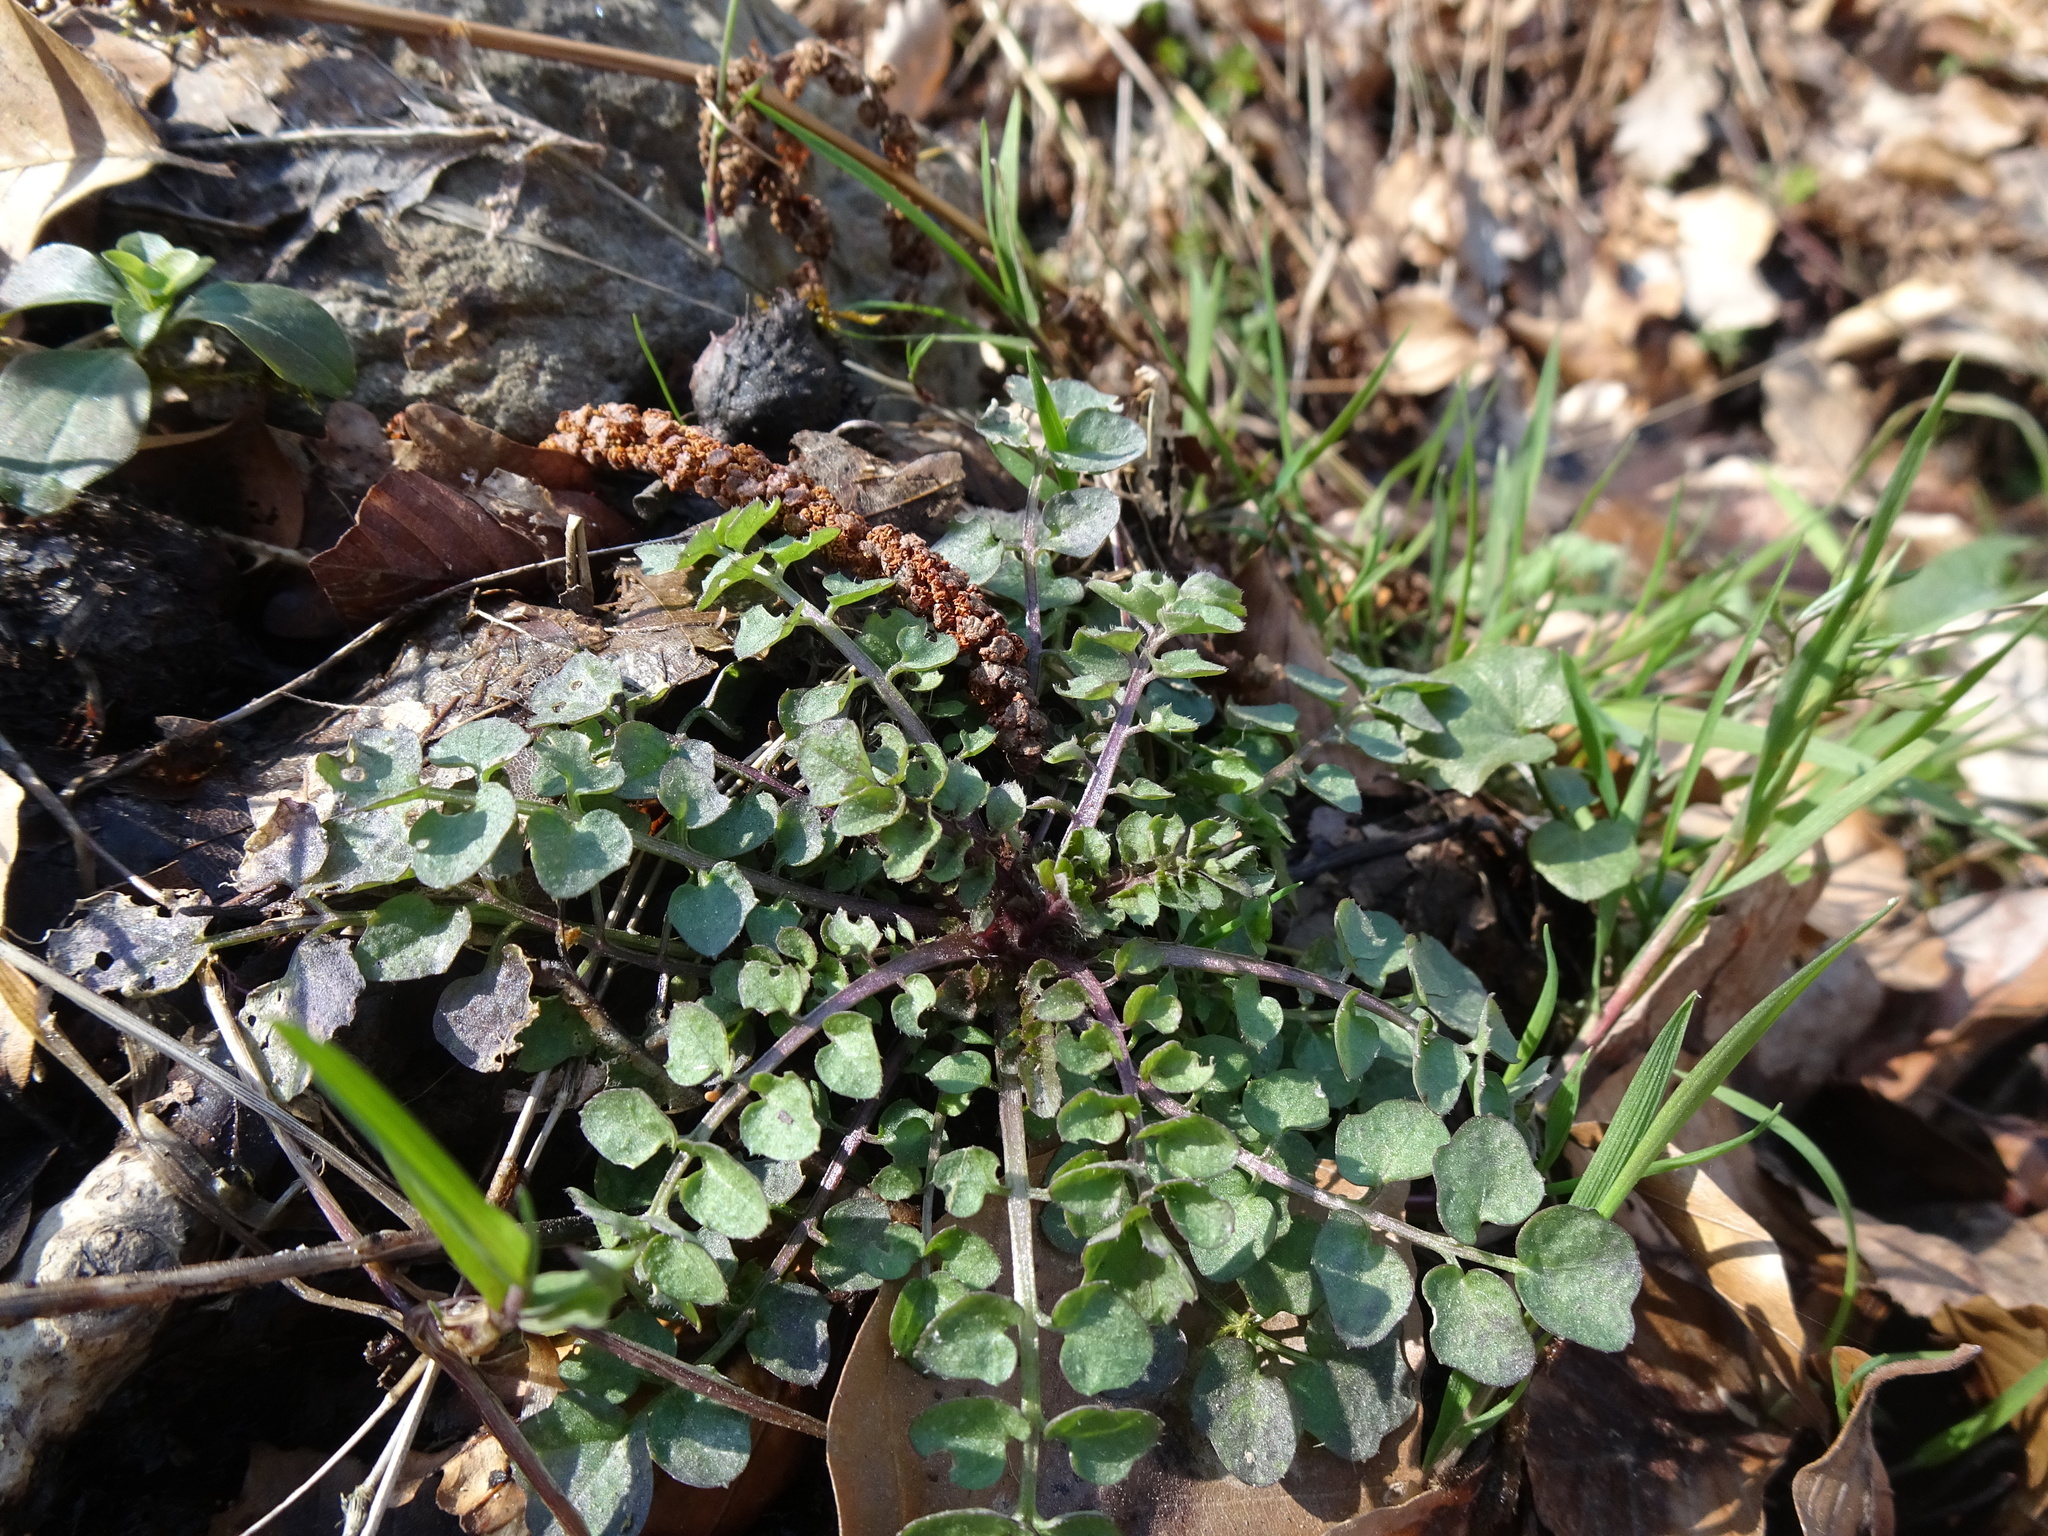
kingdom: Plantae
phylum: Tracheophyta
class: Magnoliopsida
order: Brassicales
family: Brassicaceae
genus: Cardamine
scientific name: Cardamine hirsuta
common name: Hairy bittercress
